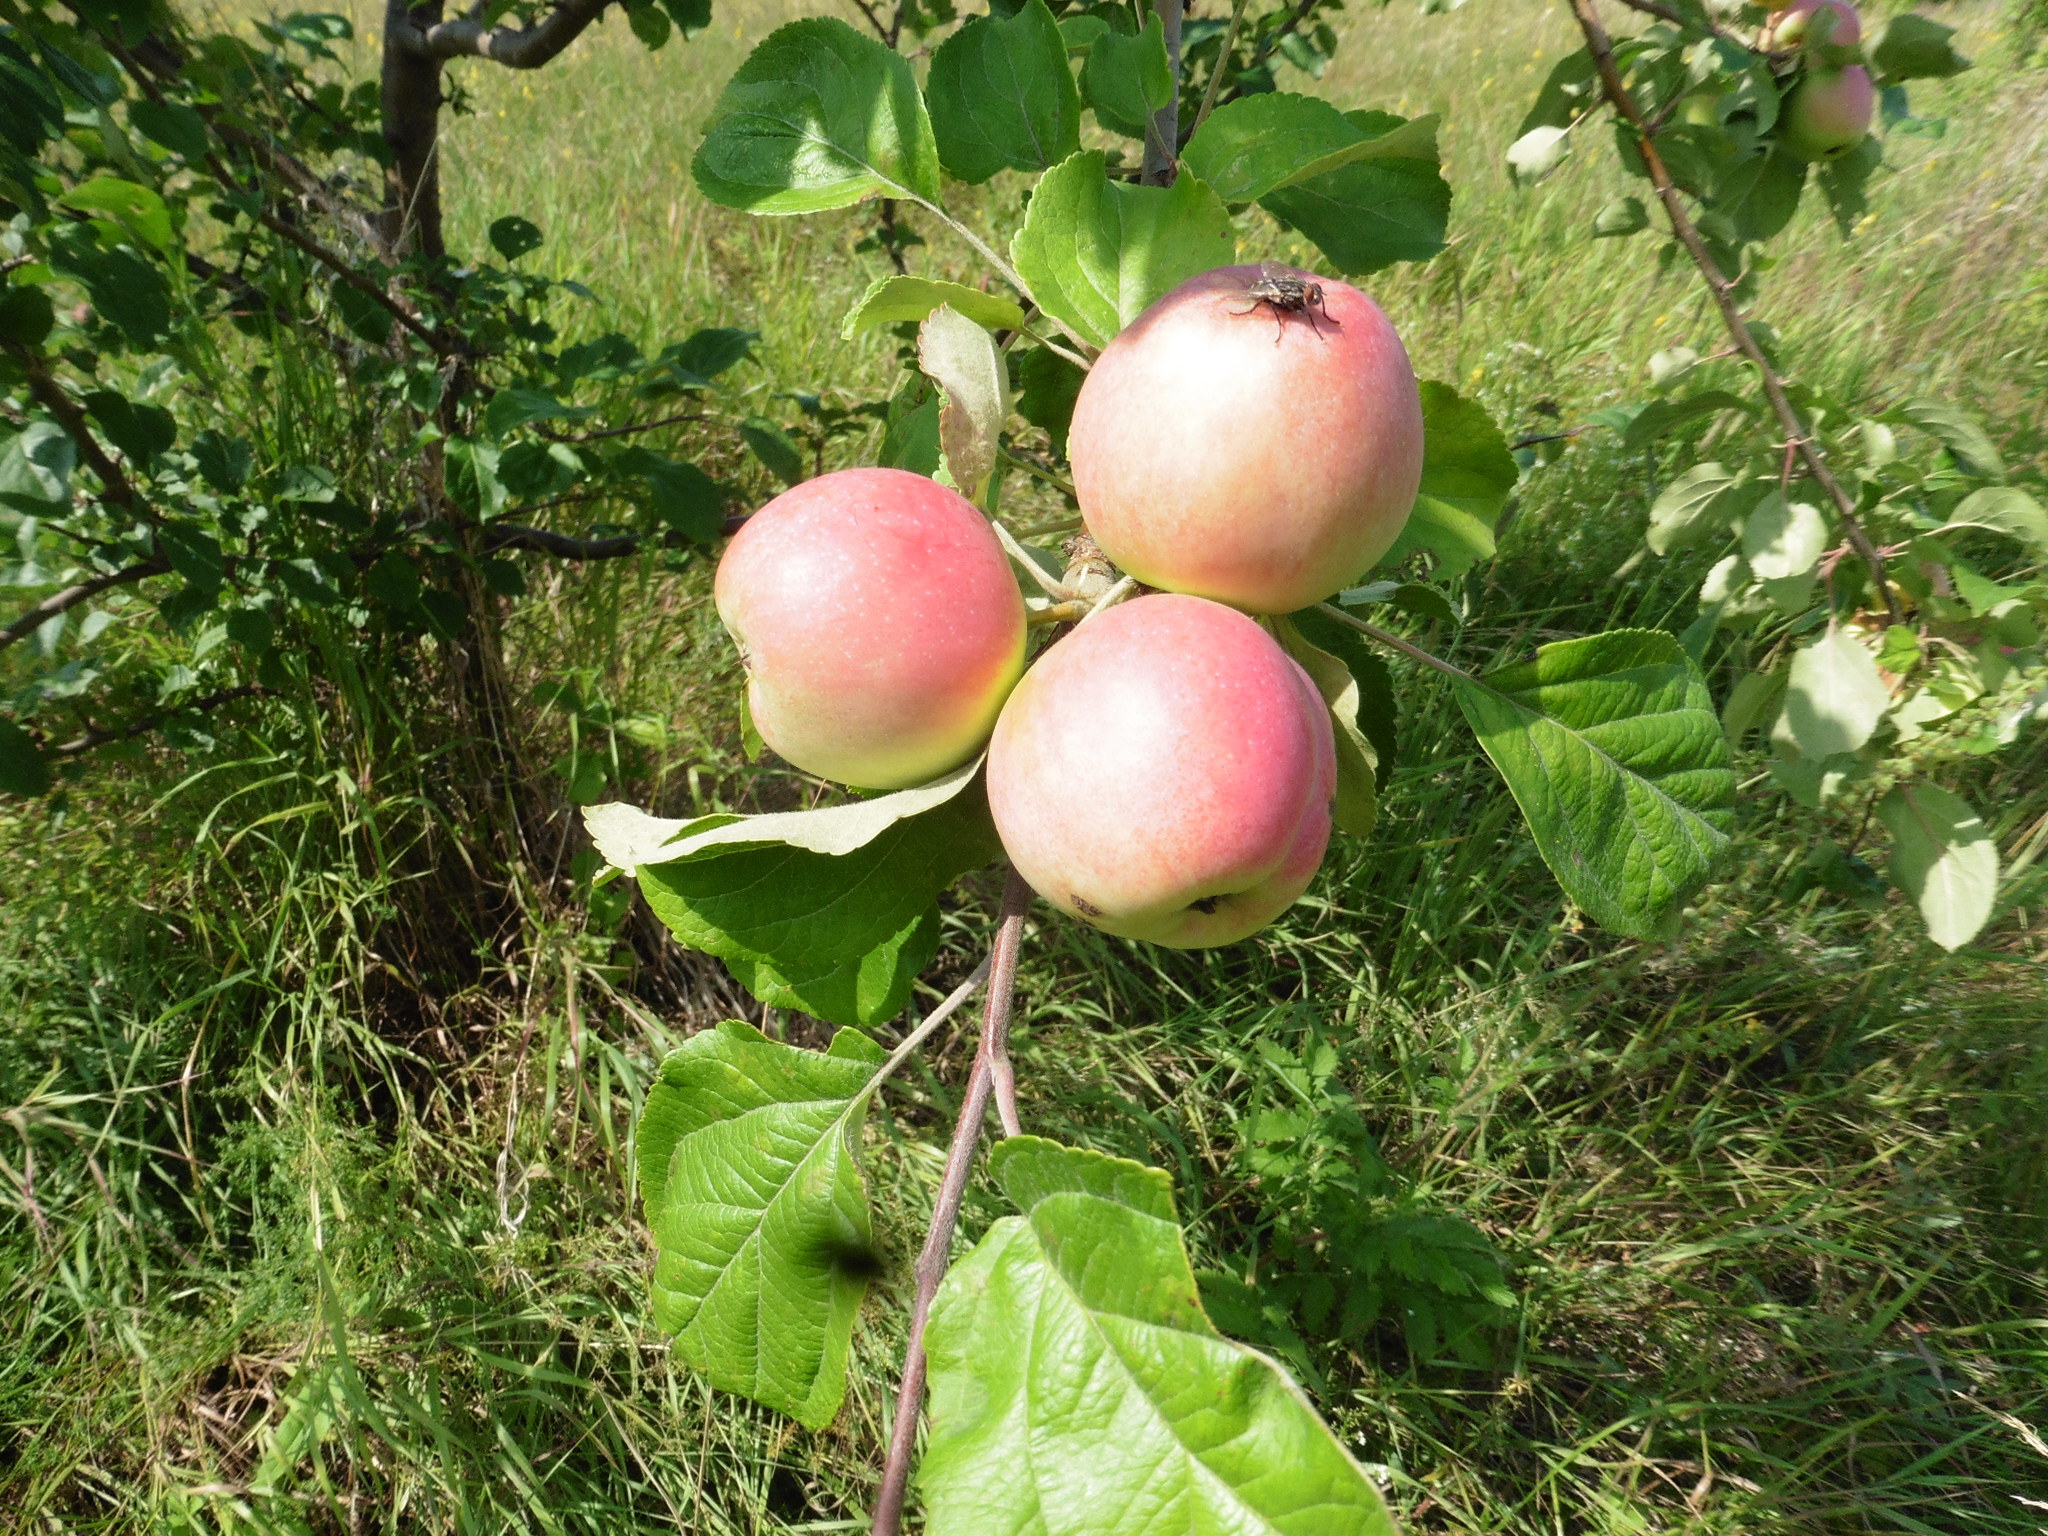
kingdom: Plantae
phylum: Tracheophyta
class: Magnoliopsida
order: Rosales
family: Rosaceae
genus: Malus
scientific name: Malus domestica
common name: Apple
